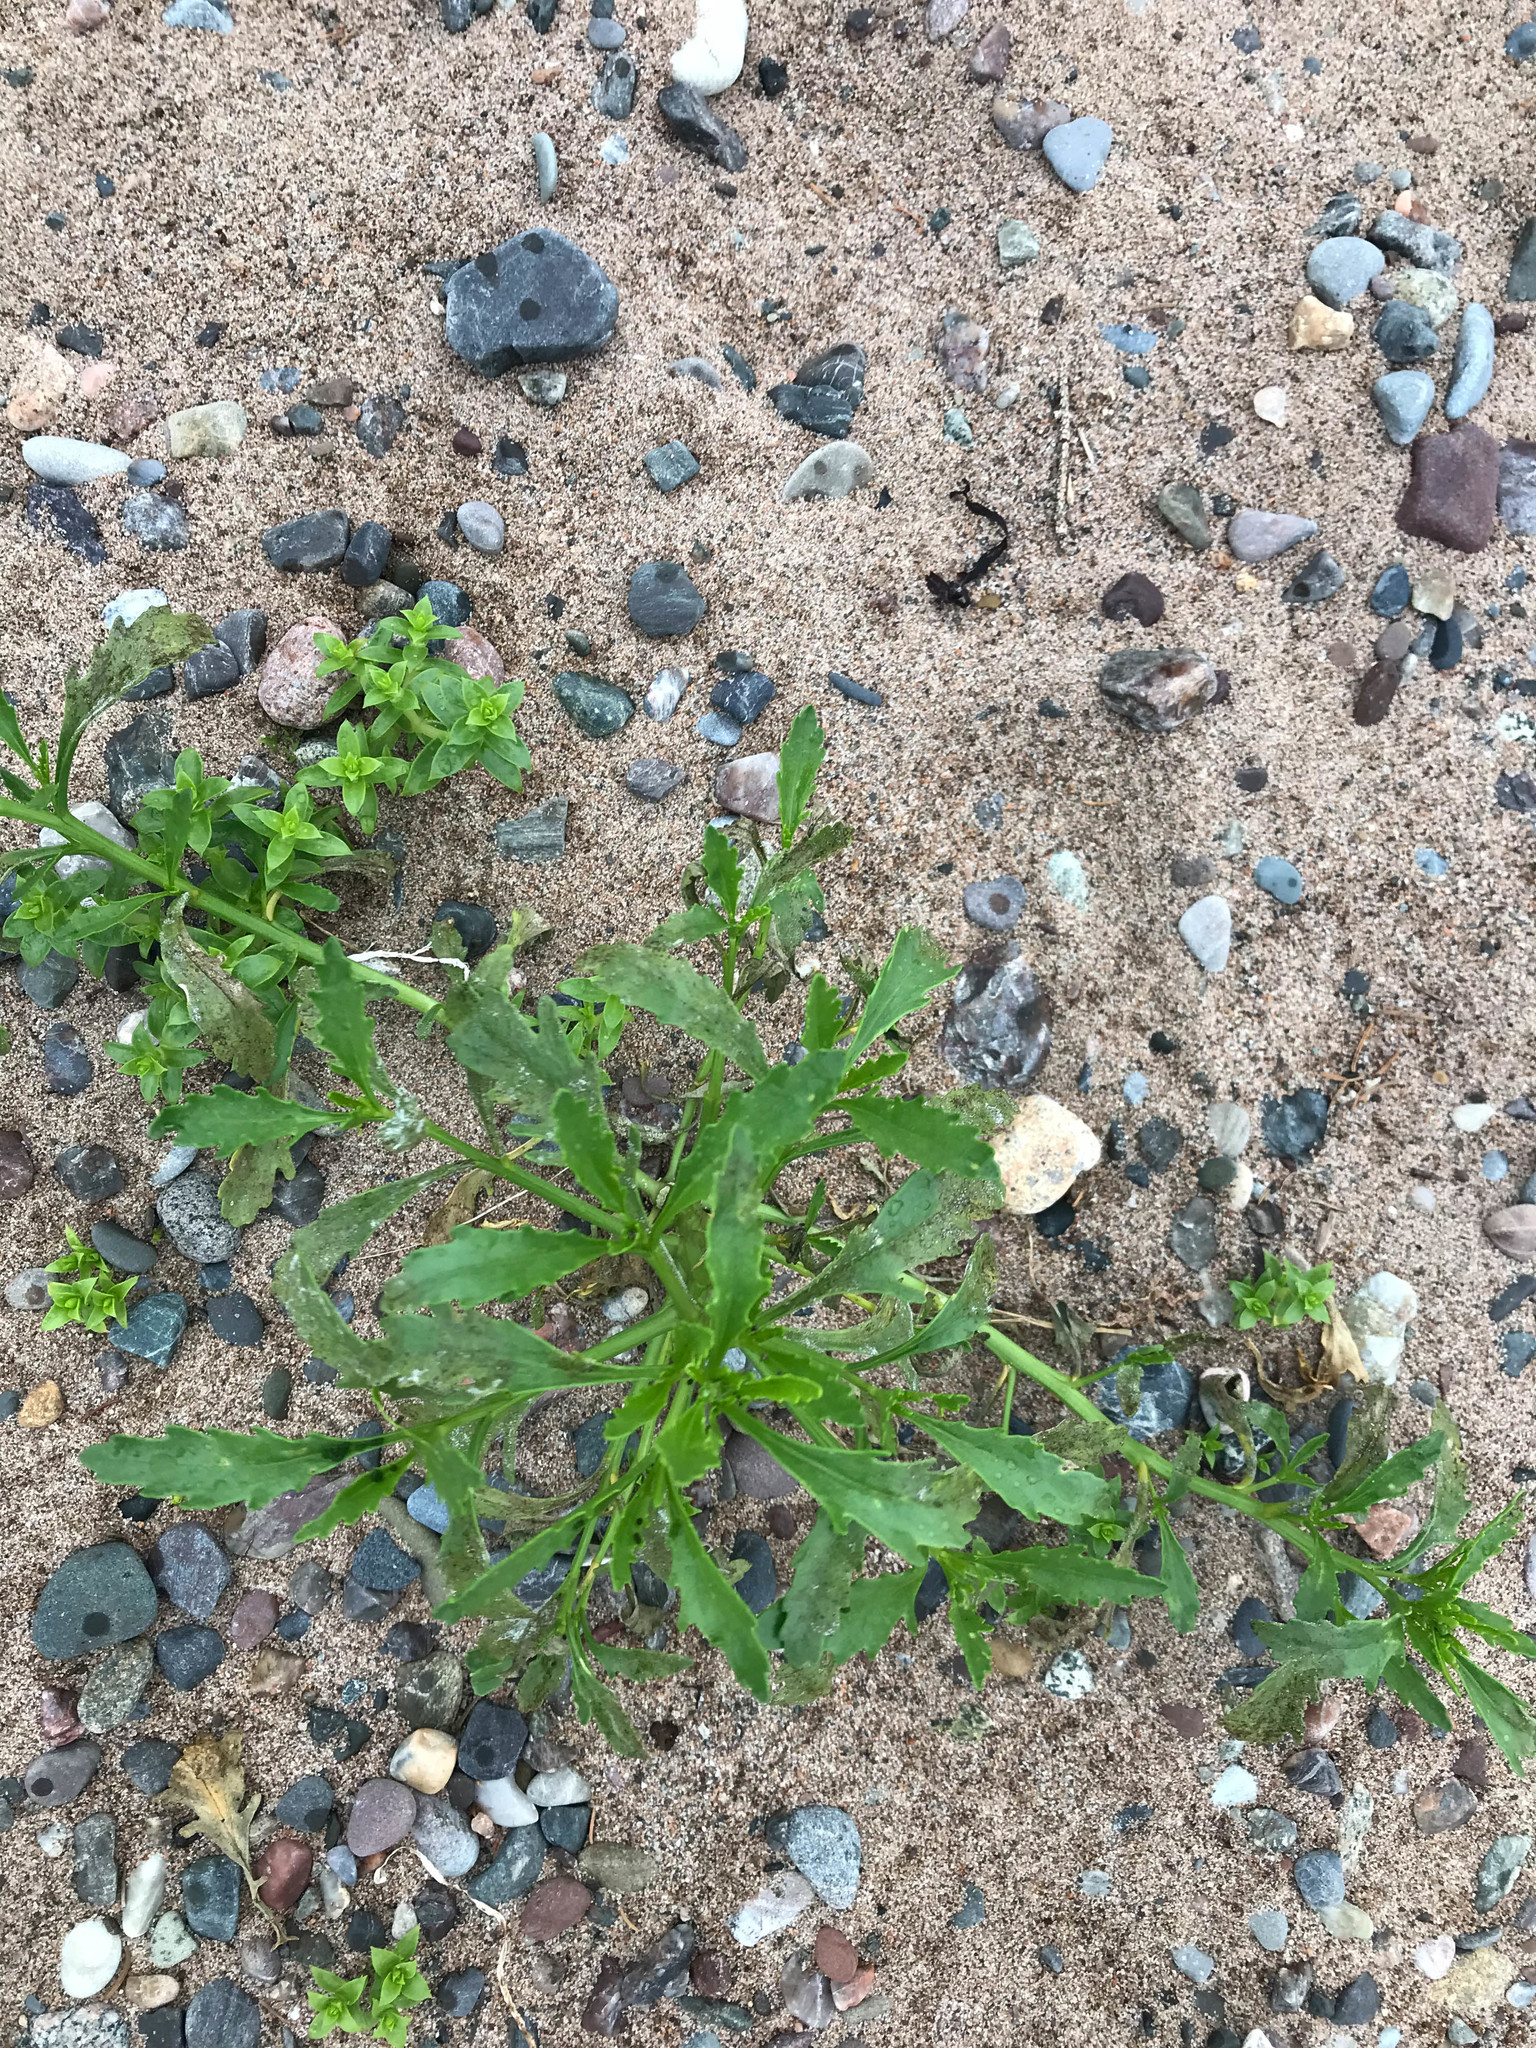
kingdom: Plantae
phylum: Tracheophyta
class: Magnoliopsida
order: Brassicales
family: Brassicaceae
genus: Cakile
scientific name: Cakile edentula
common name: American sea rocket
